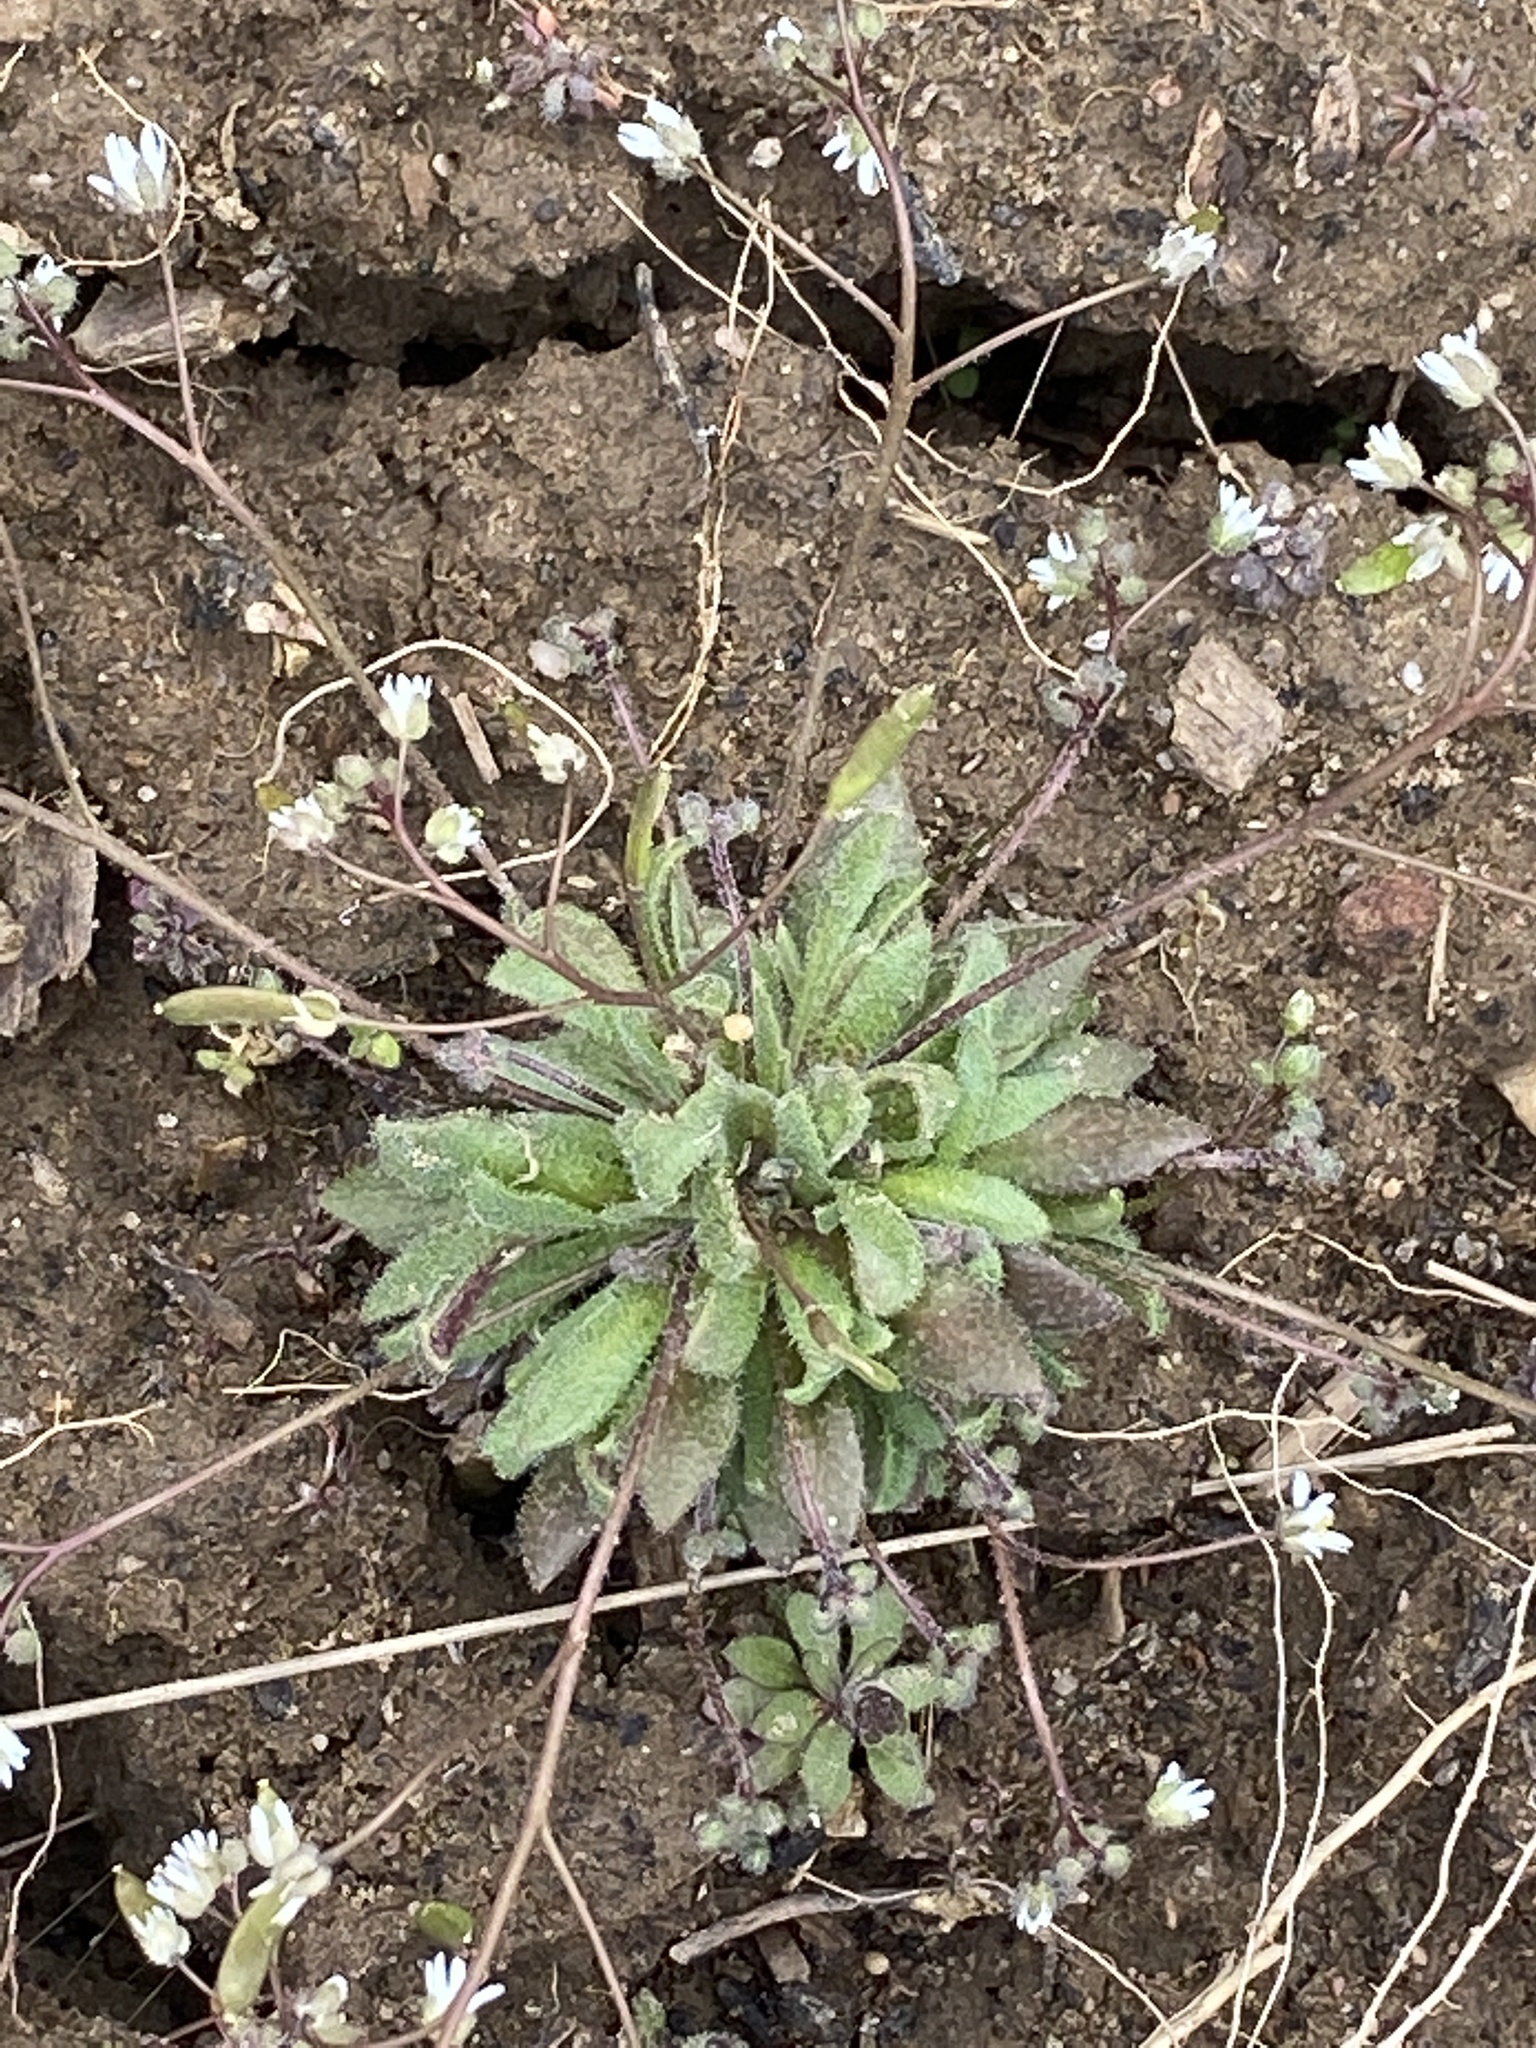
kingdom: Plantae
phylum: Tracheophyta
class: Magnoliopsida
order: Brassicales
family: Brassicaceae
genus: Draba
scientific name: Draba verna
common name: Spring draba
